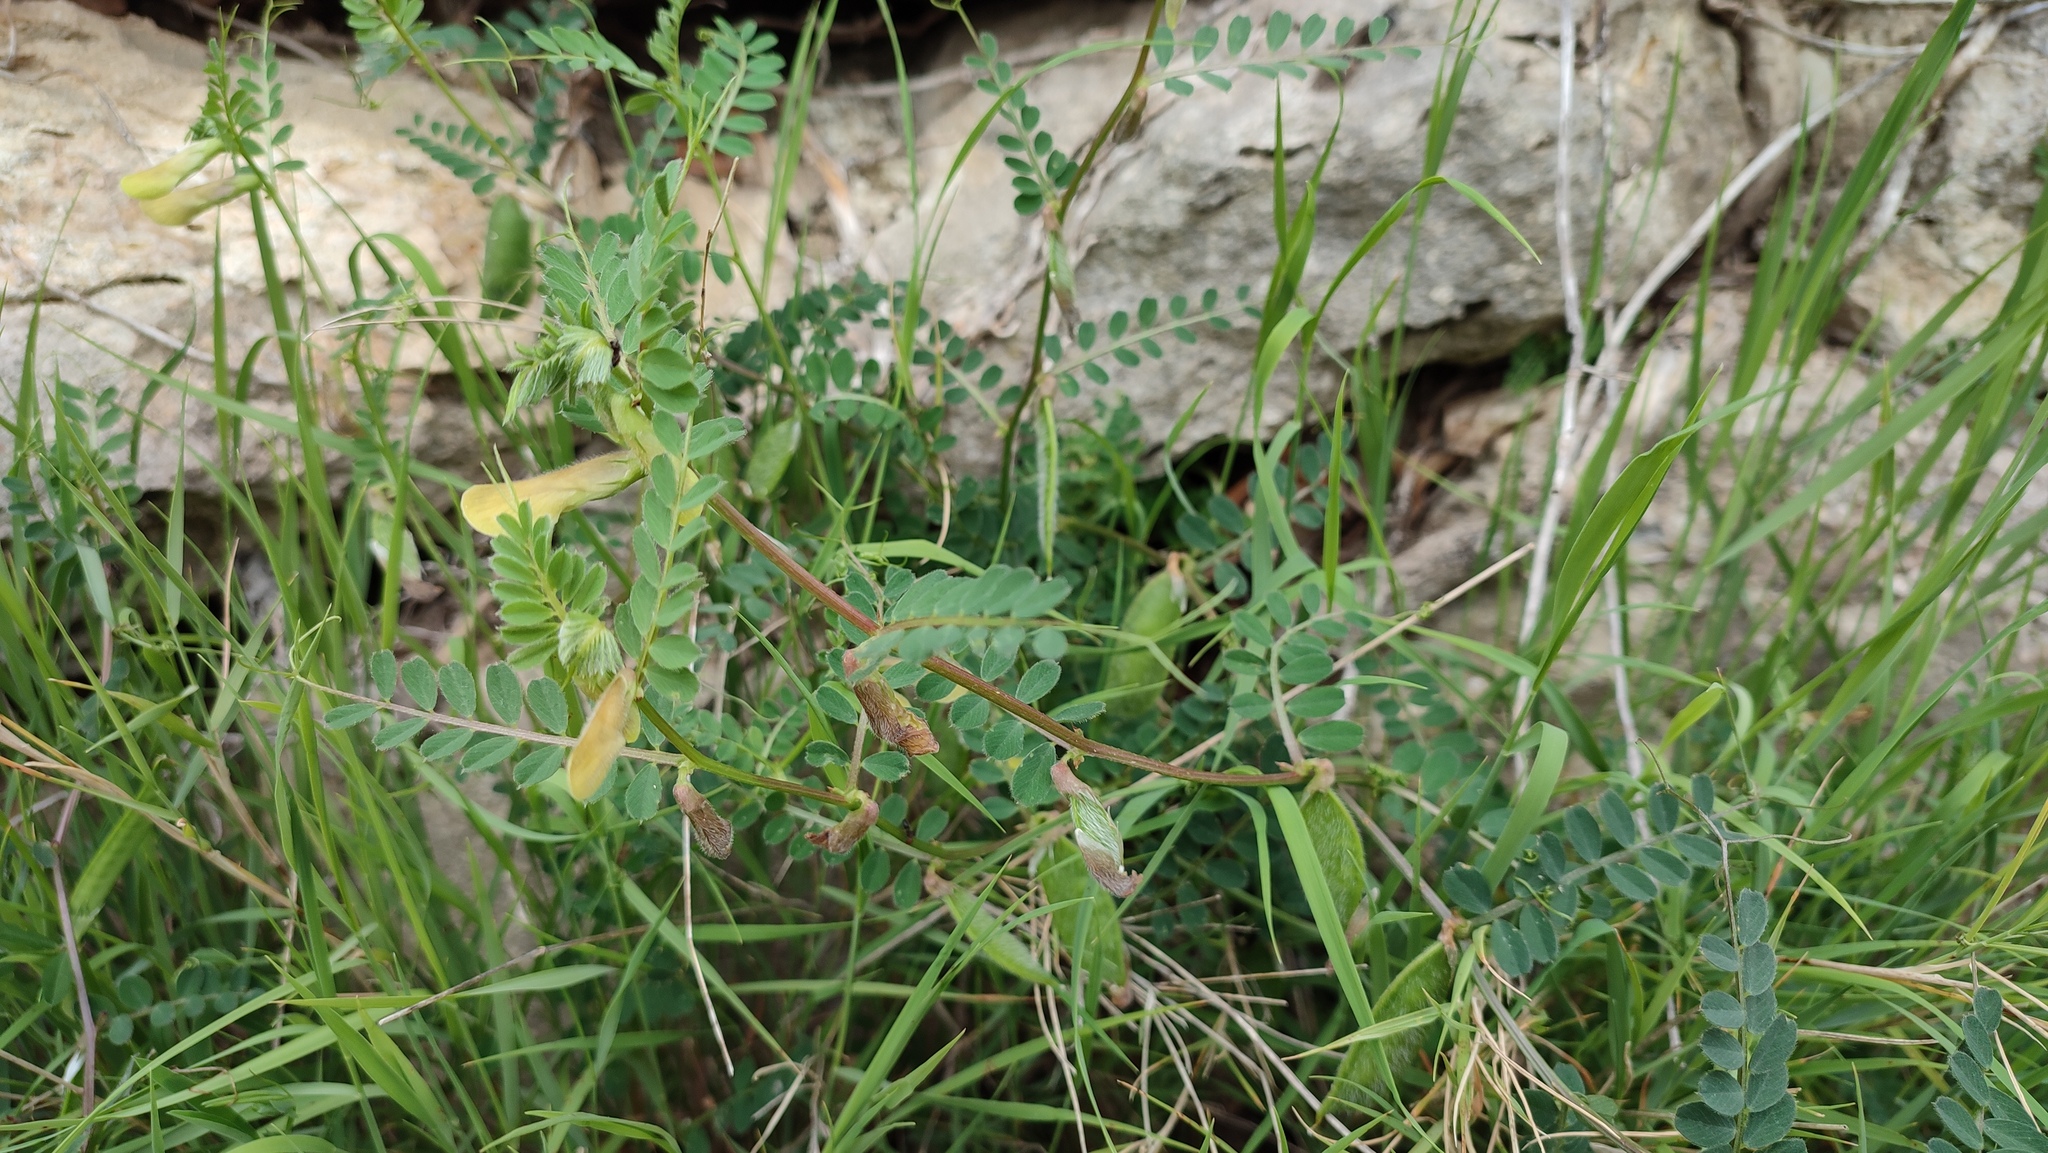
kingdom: Plantae
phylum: Tracheophyta
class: Magnoliopsida
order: Fabales
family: Fabaceae
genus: Vicia
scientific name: Vicia lutea
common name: Smooth yellow vetch
